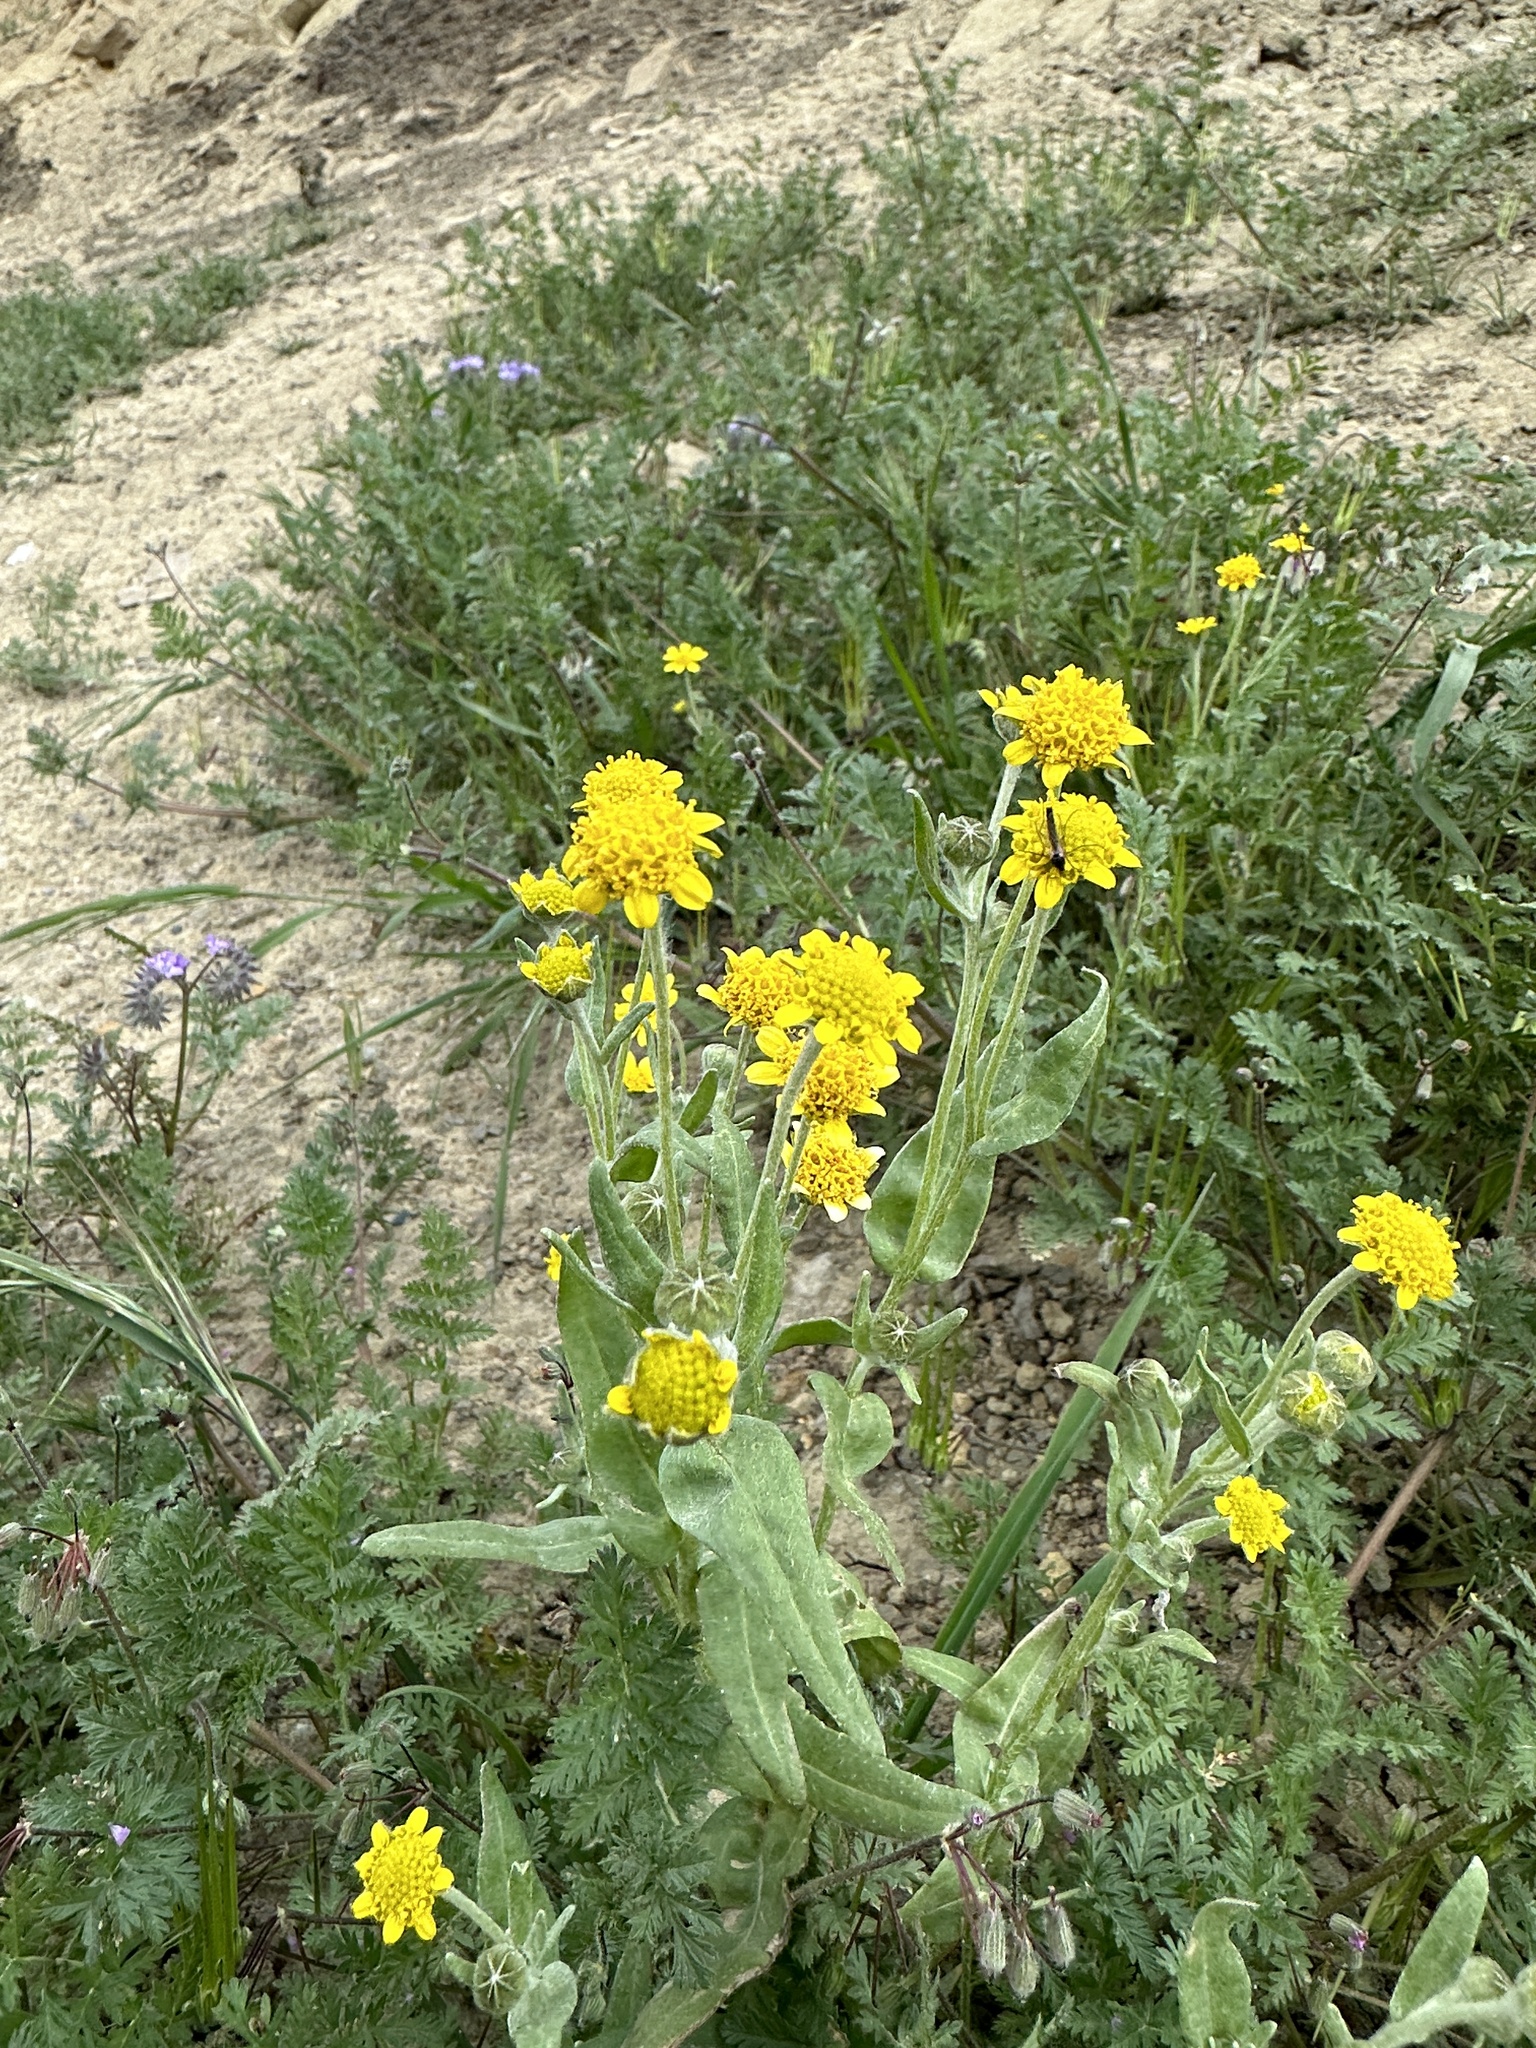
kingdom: Plantae
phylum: Tracheophyta
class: Magnoliopsida
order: Asterales
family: Asteraceae
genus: Monolopia
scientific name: Monolopia stricta
